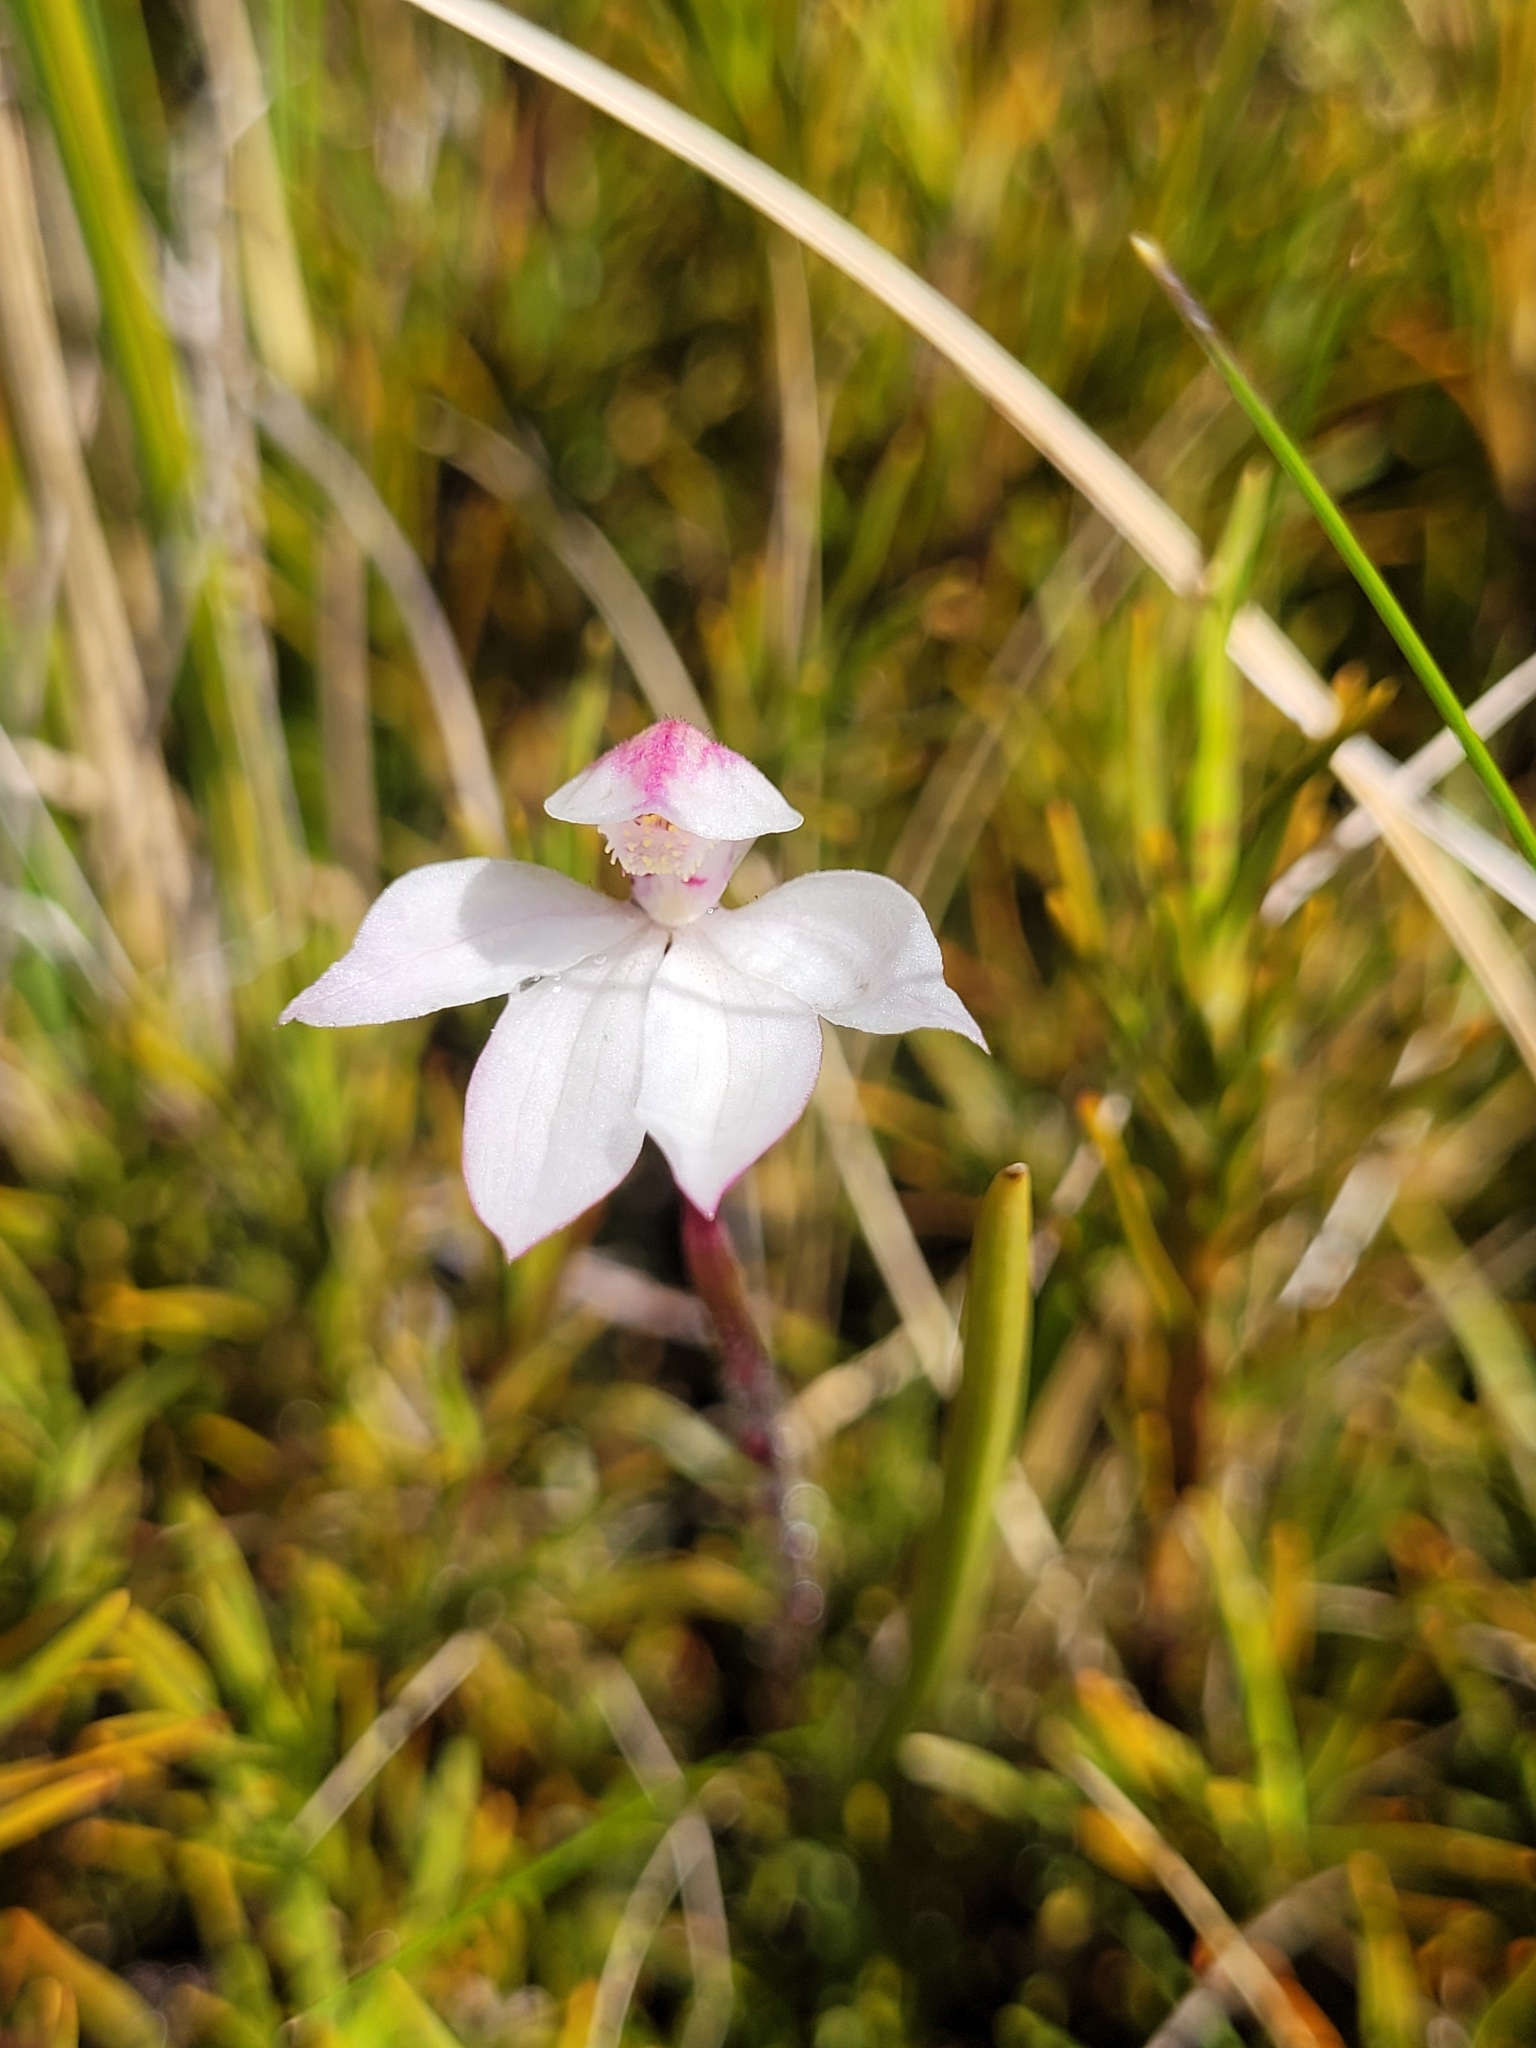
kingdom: Plantae
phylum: Tracheophyta
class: Liliopsida
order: Asparagales
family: Orchidaceae
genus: Caladenia
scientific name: Caladenia lyallii
